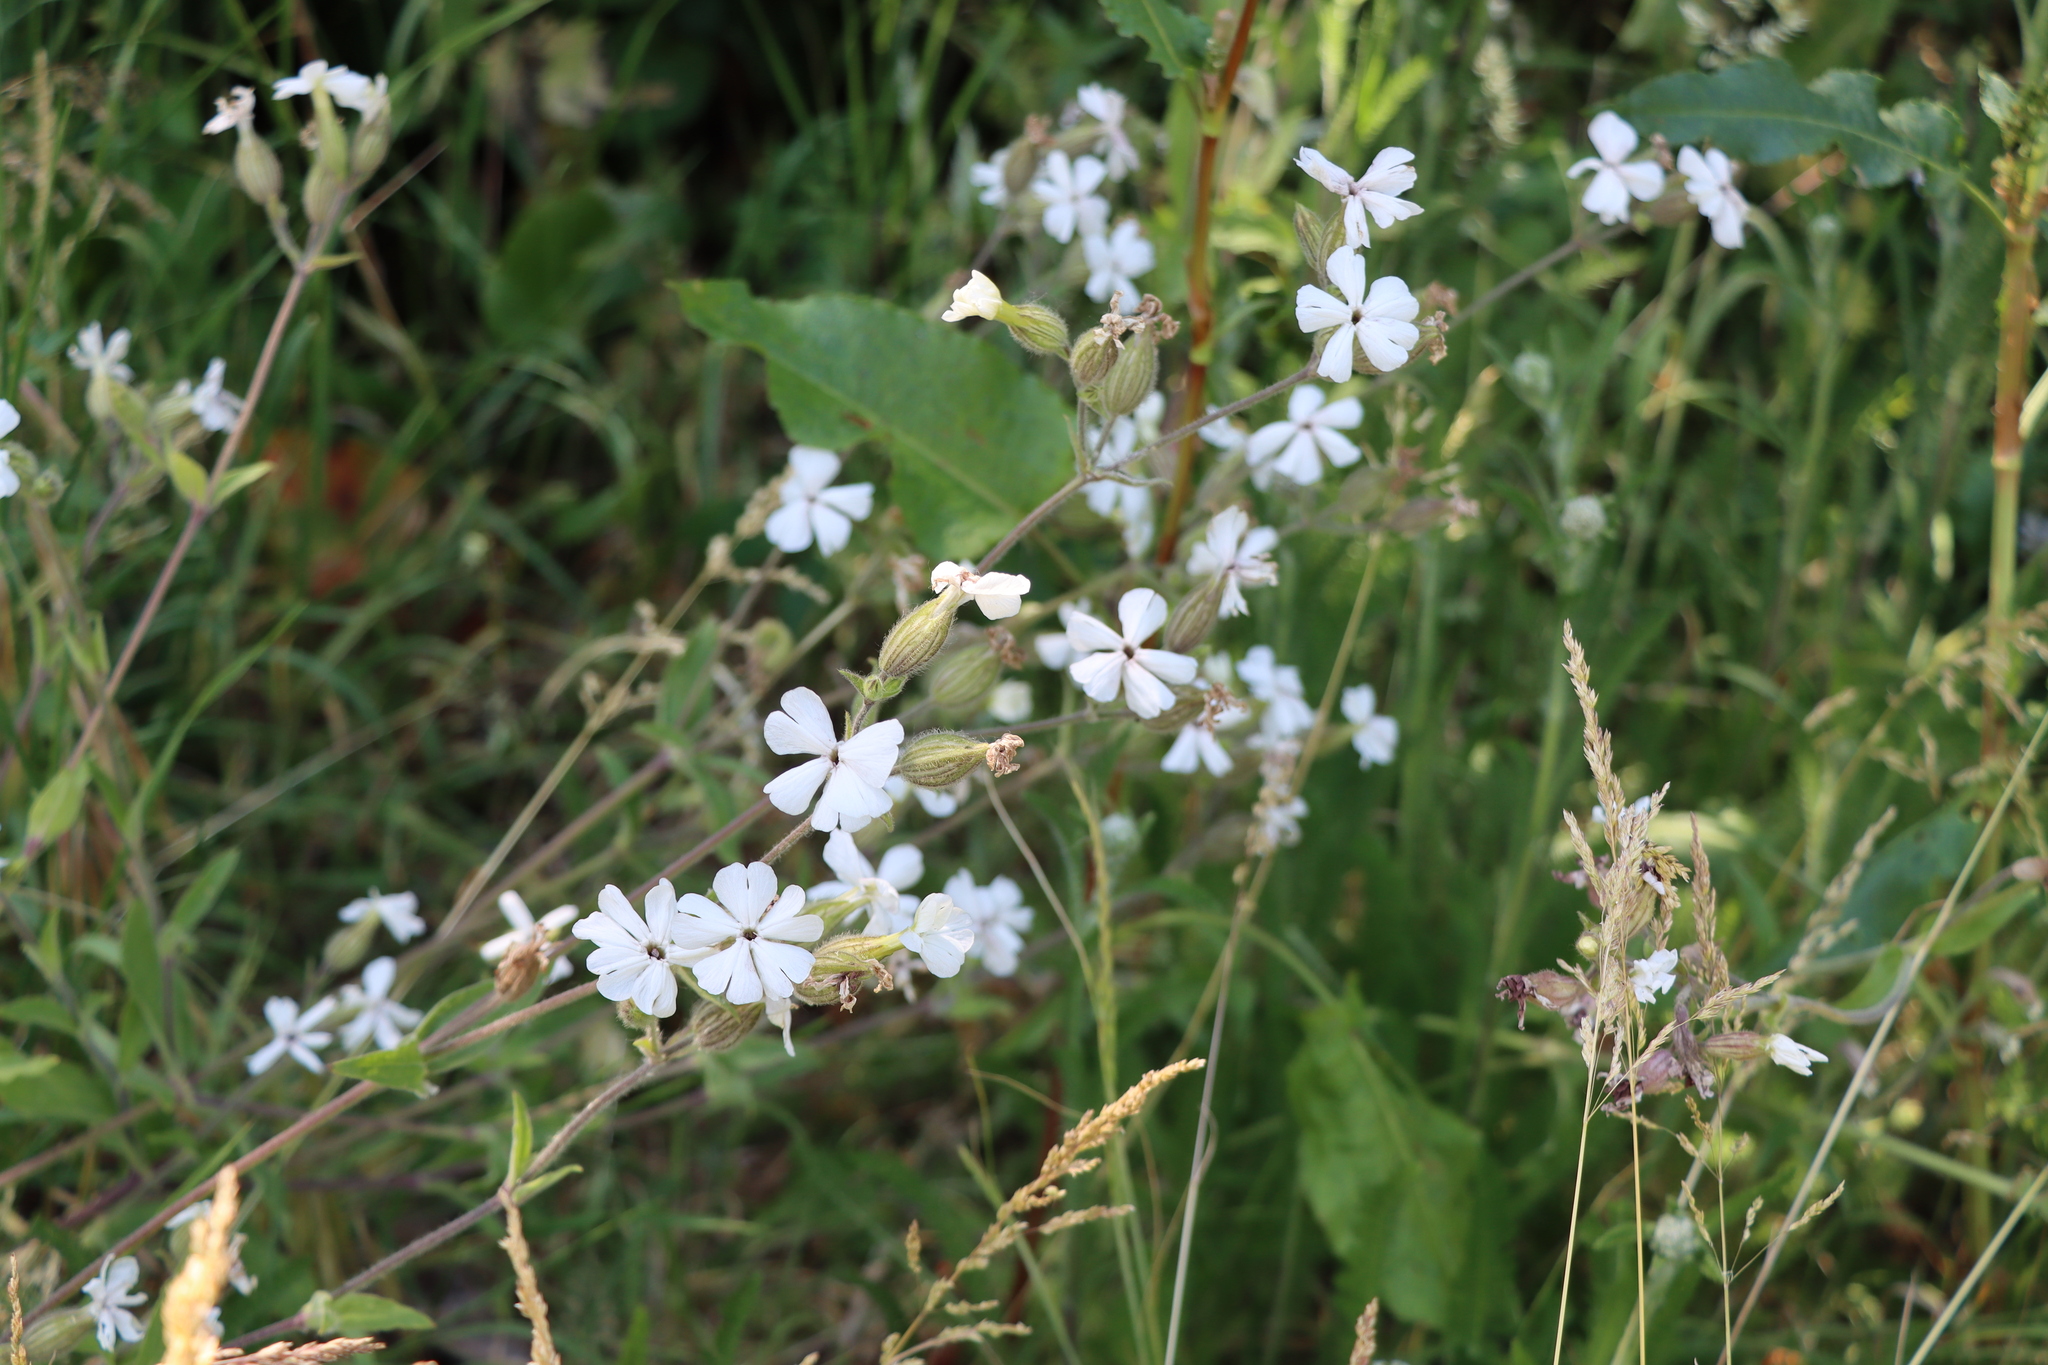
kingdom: Plantae
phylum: Tracheophyta
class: Magnoliopsida
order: Caryophyllales
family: Caryophyllaceae
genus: Silene
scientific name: Silene latifolia
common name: White campion
